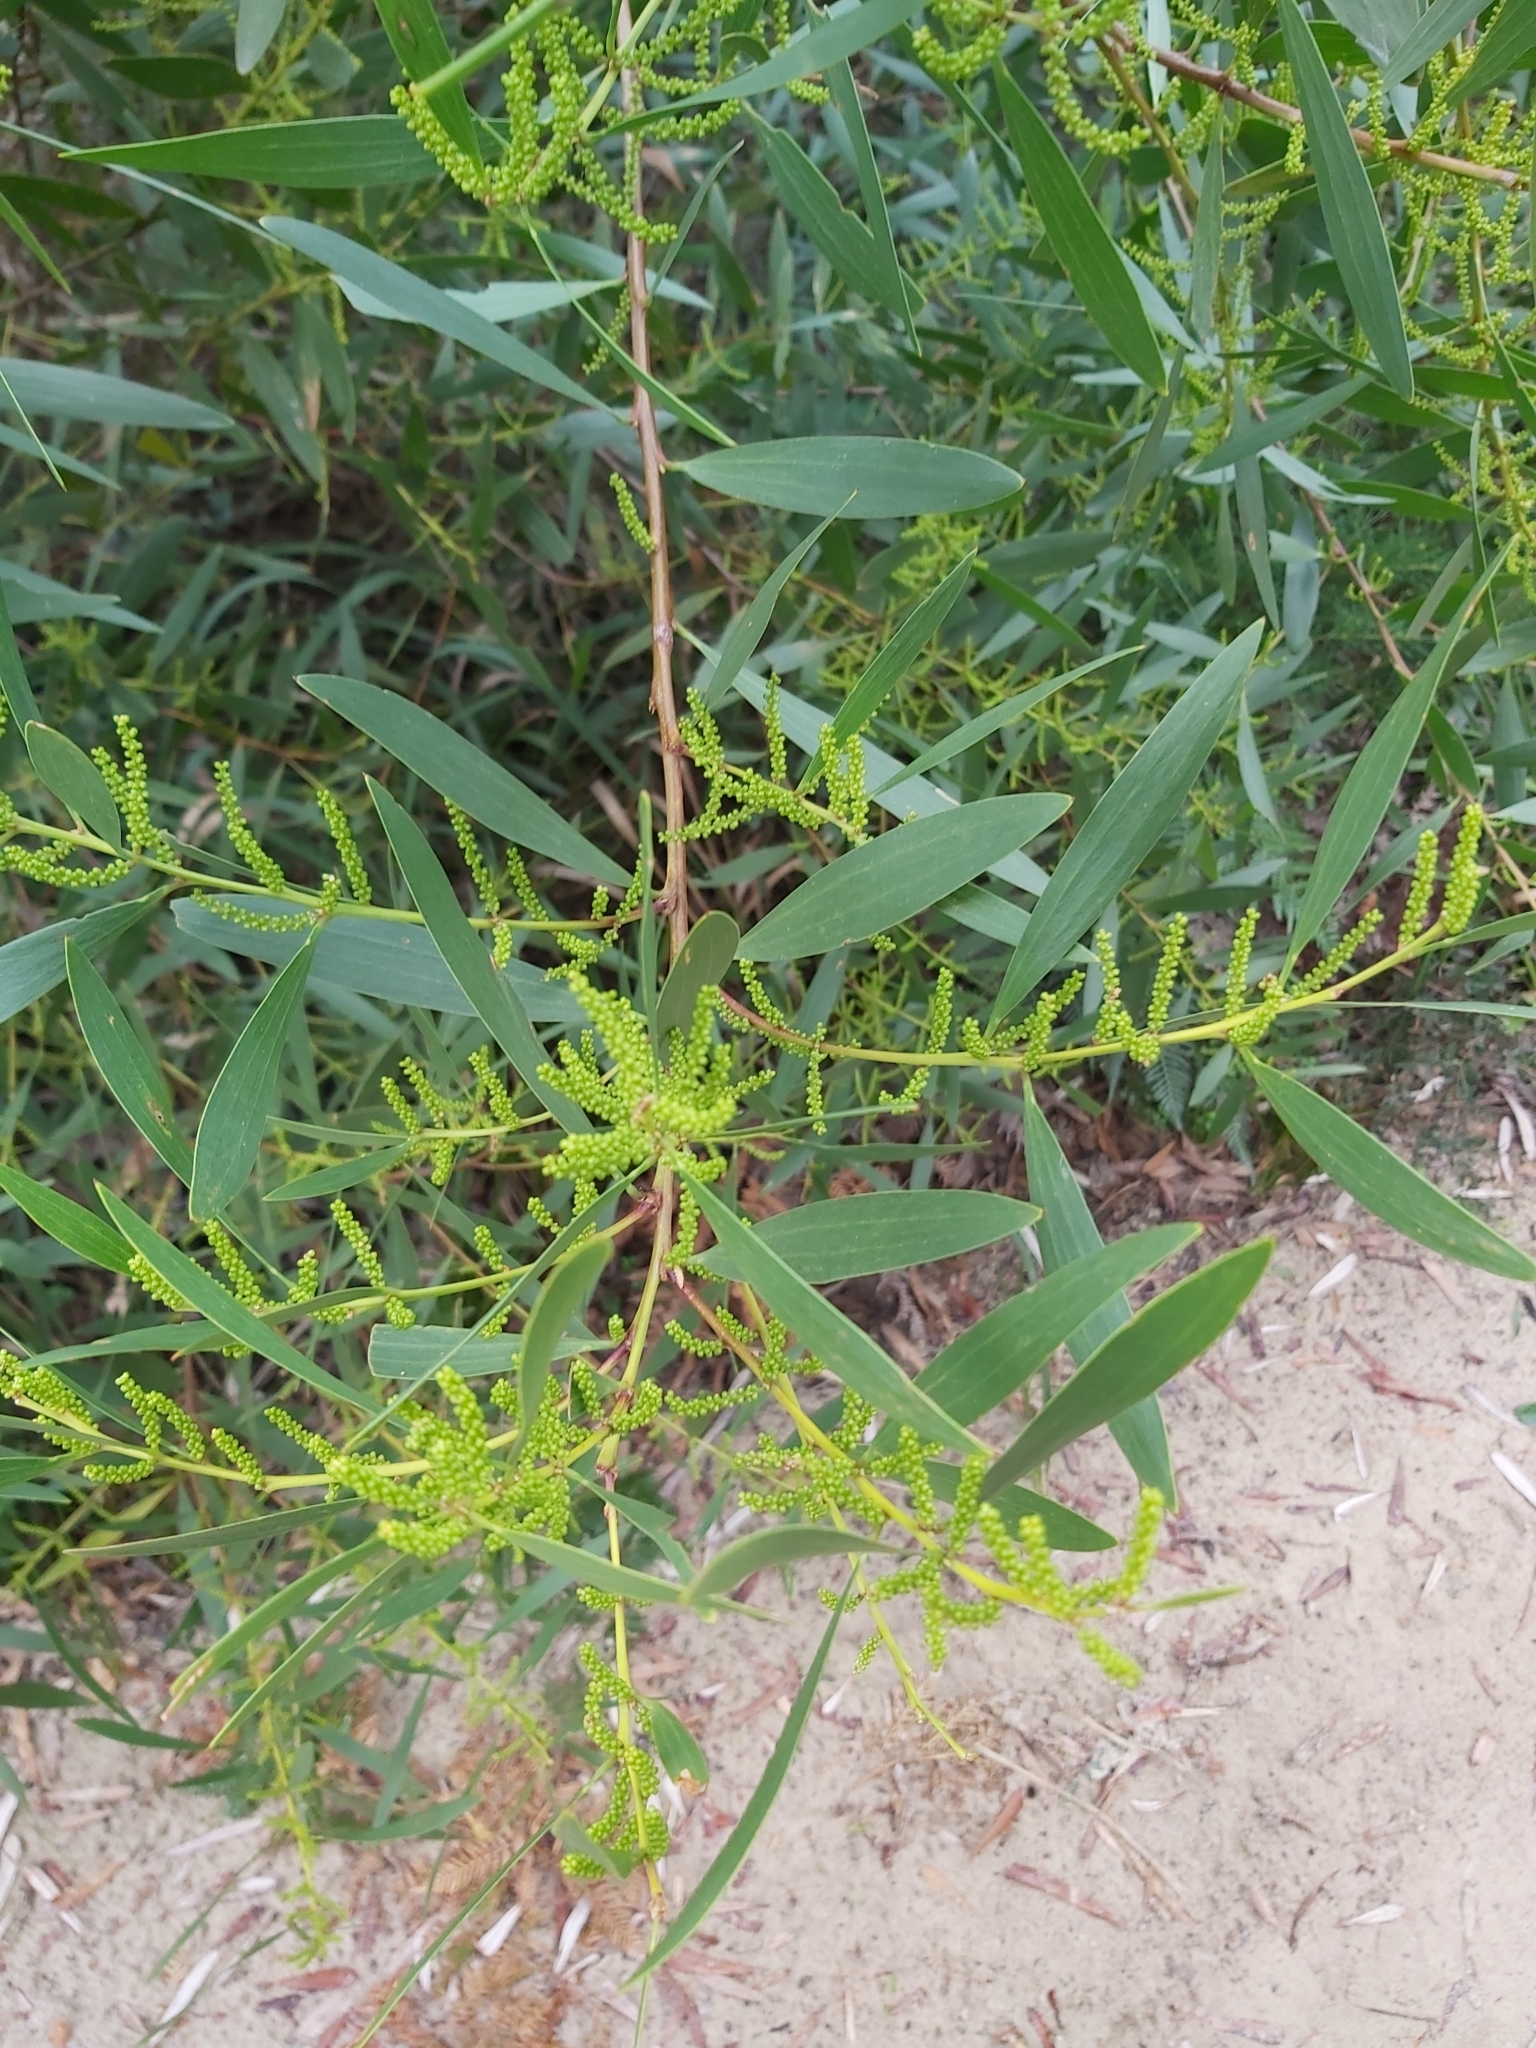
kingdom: Plantae
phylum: Tracheophyta
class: Magnoliopsida
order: Fabales
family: Fabaceae
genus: Acacia
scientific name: Acacia longifolia
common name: Sydney golden wattle
